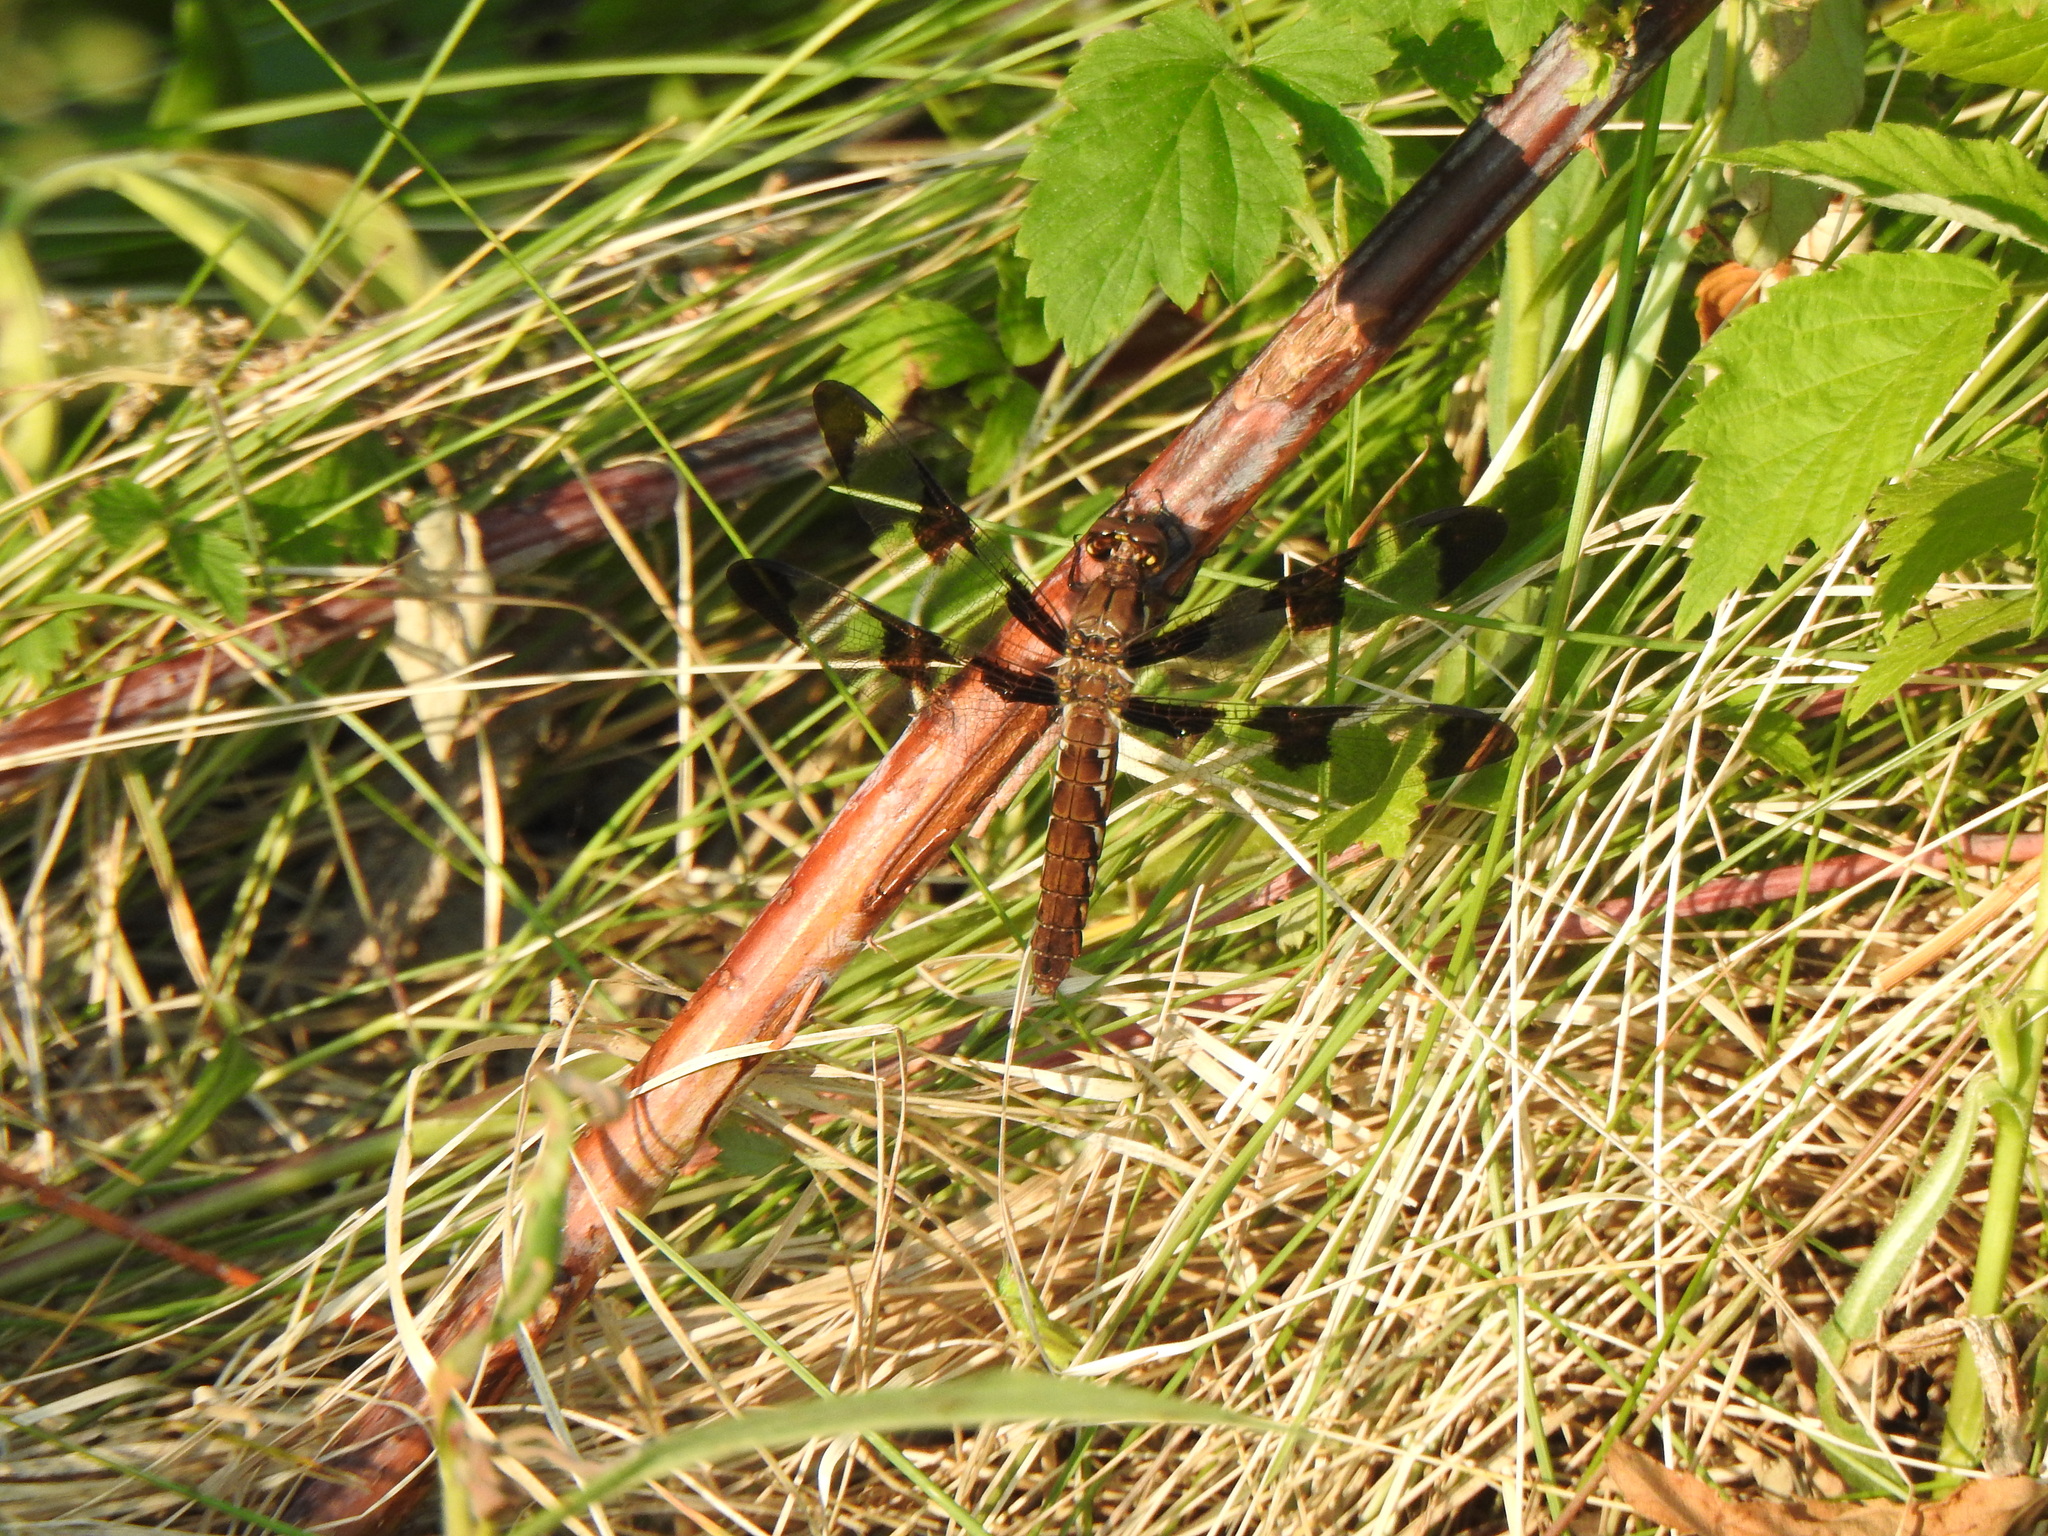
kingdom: Animalia
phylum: Arthropoda
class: Insecta
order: Odonata
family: Libellulidae
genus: Plathemis
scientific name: Plathemis lydia
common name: Common whitetail
